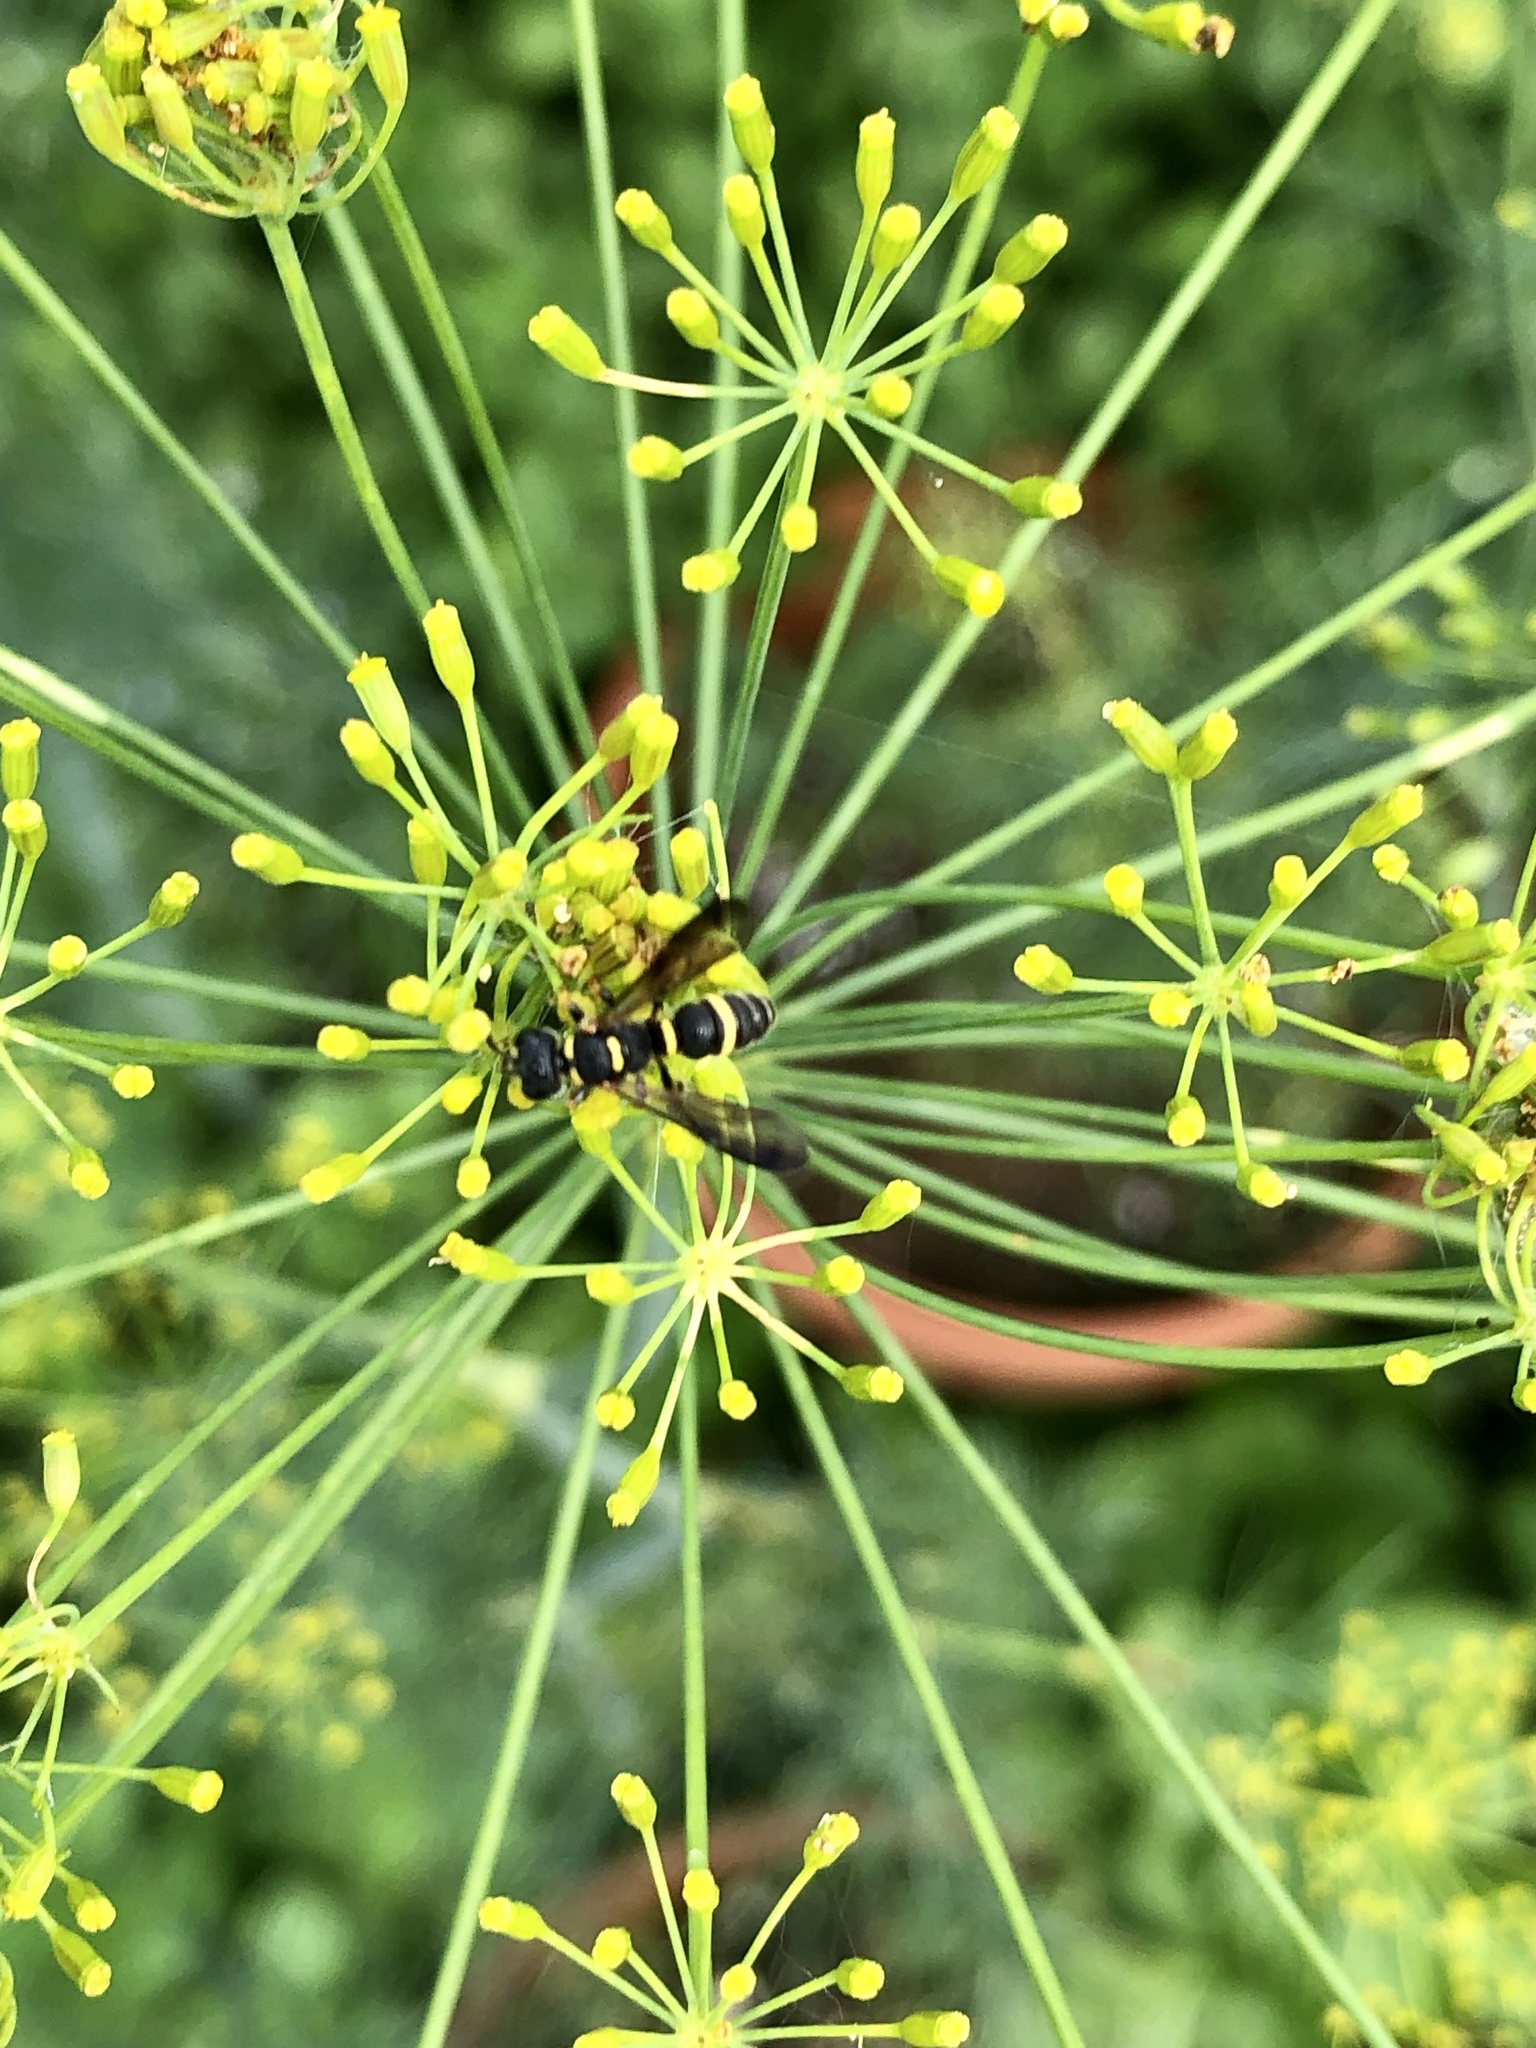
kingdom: Animalia
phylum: Arthropoda
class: Insecta
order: Hymenoptera
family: Crabronidae
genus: Cerceris
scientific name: Cerceris insolita
